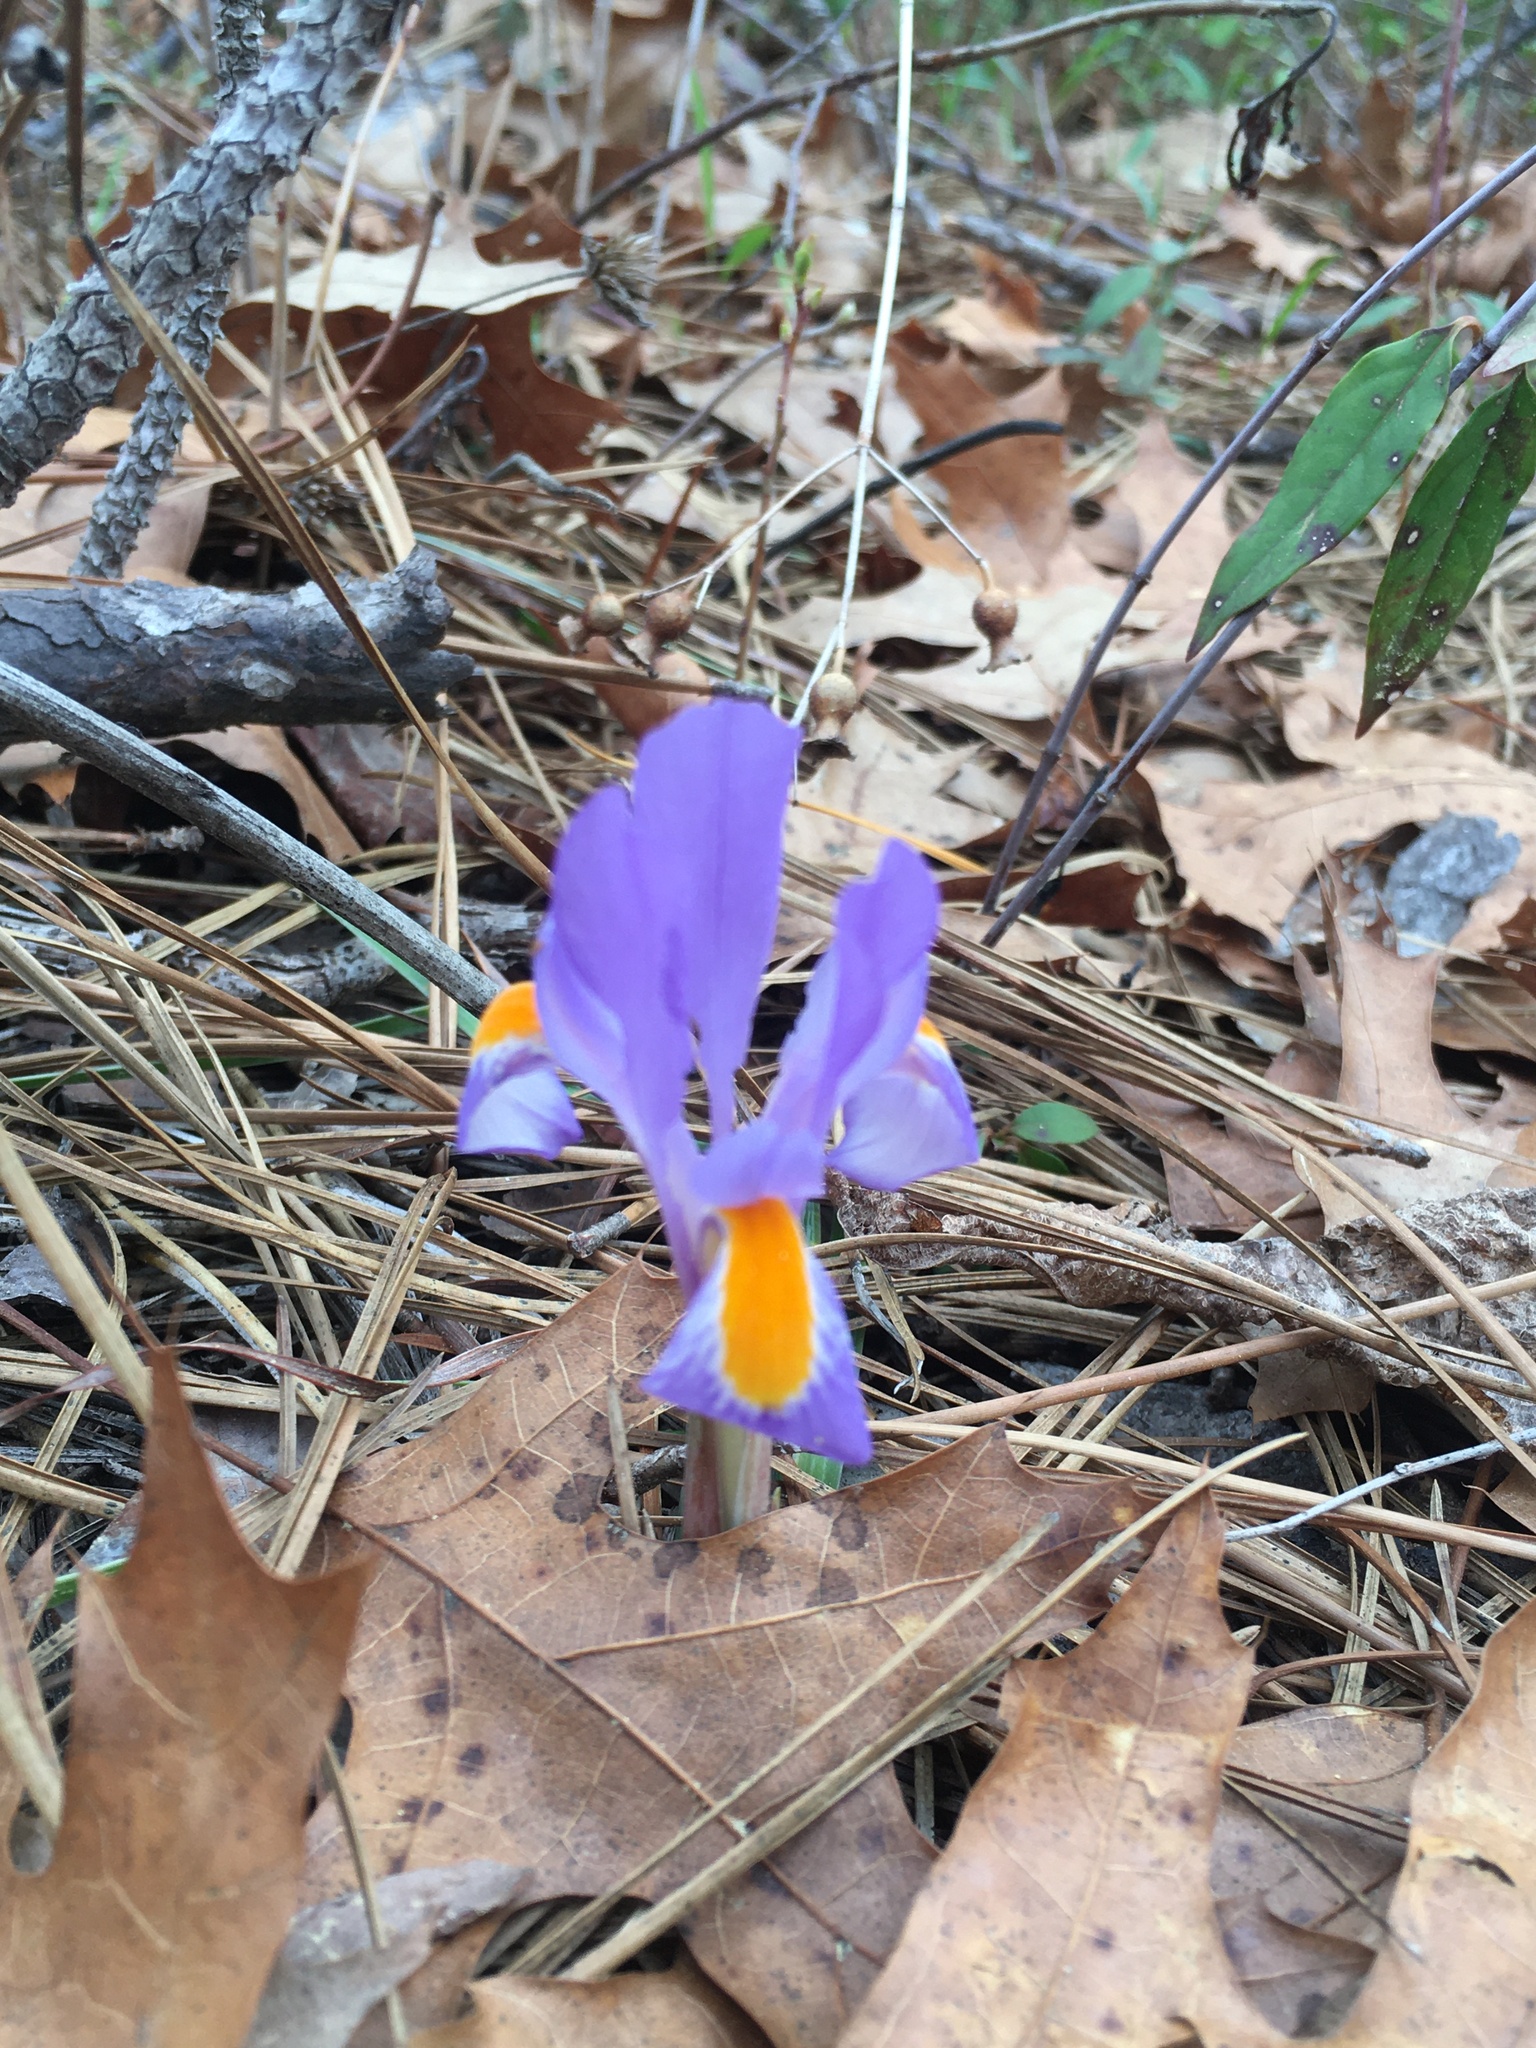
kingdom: Plantae
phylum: Tracheophyta
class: Liliopsida
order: Asparagales
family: Iridaceae
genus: Iris
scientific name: Iris verna
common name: Dwarf iris
